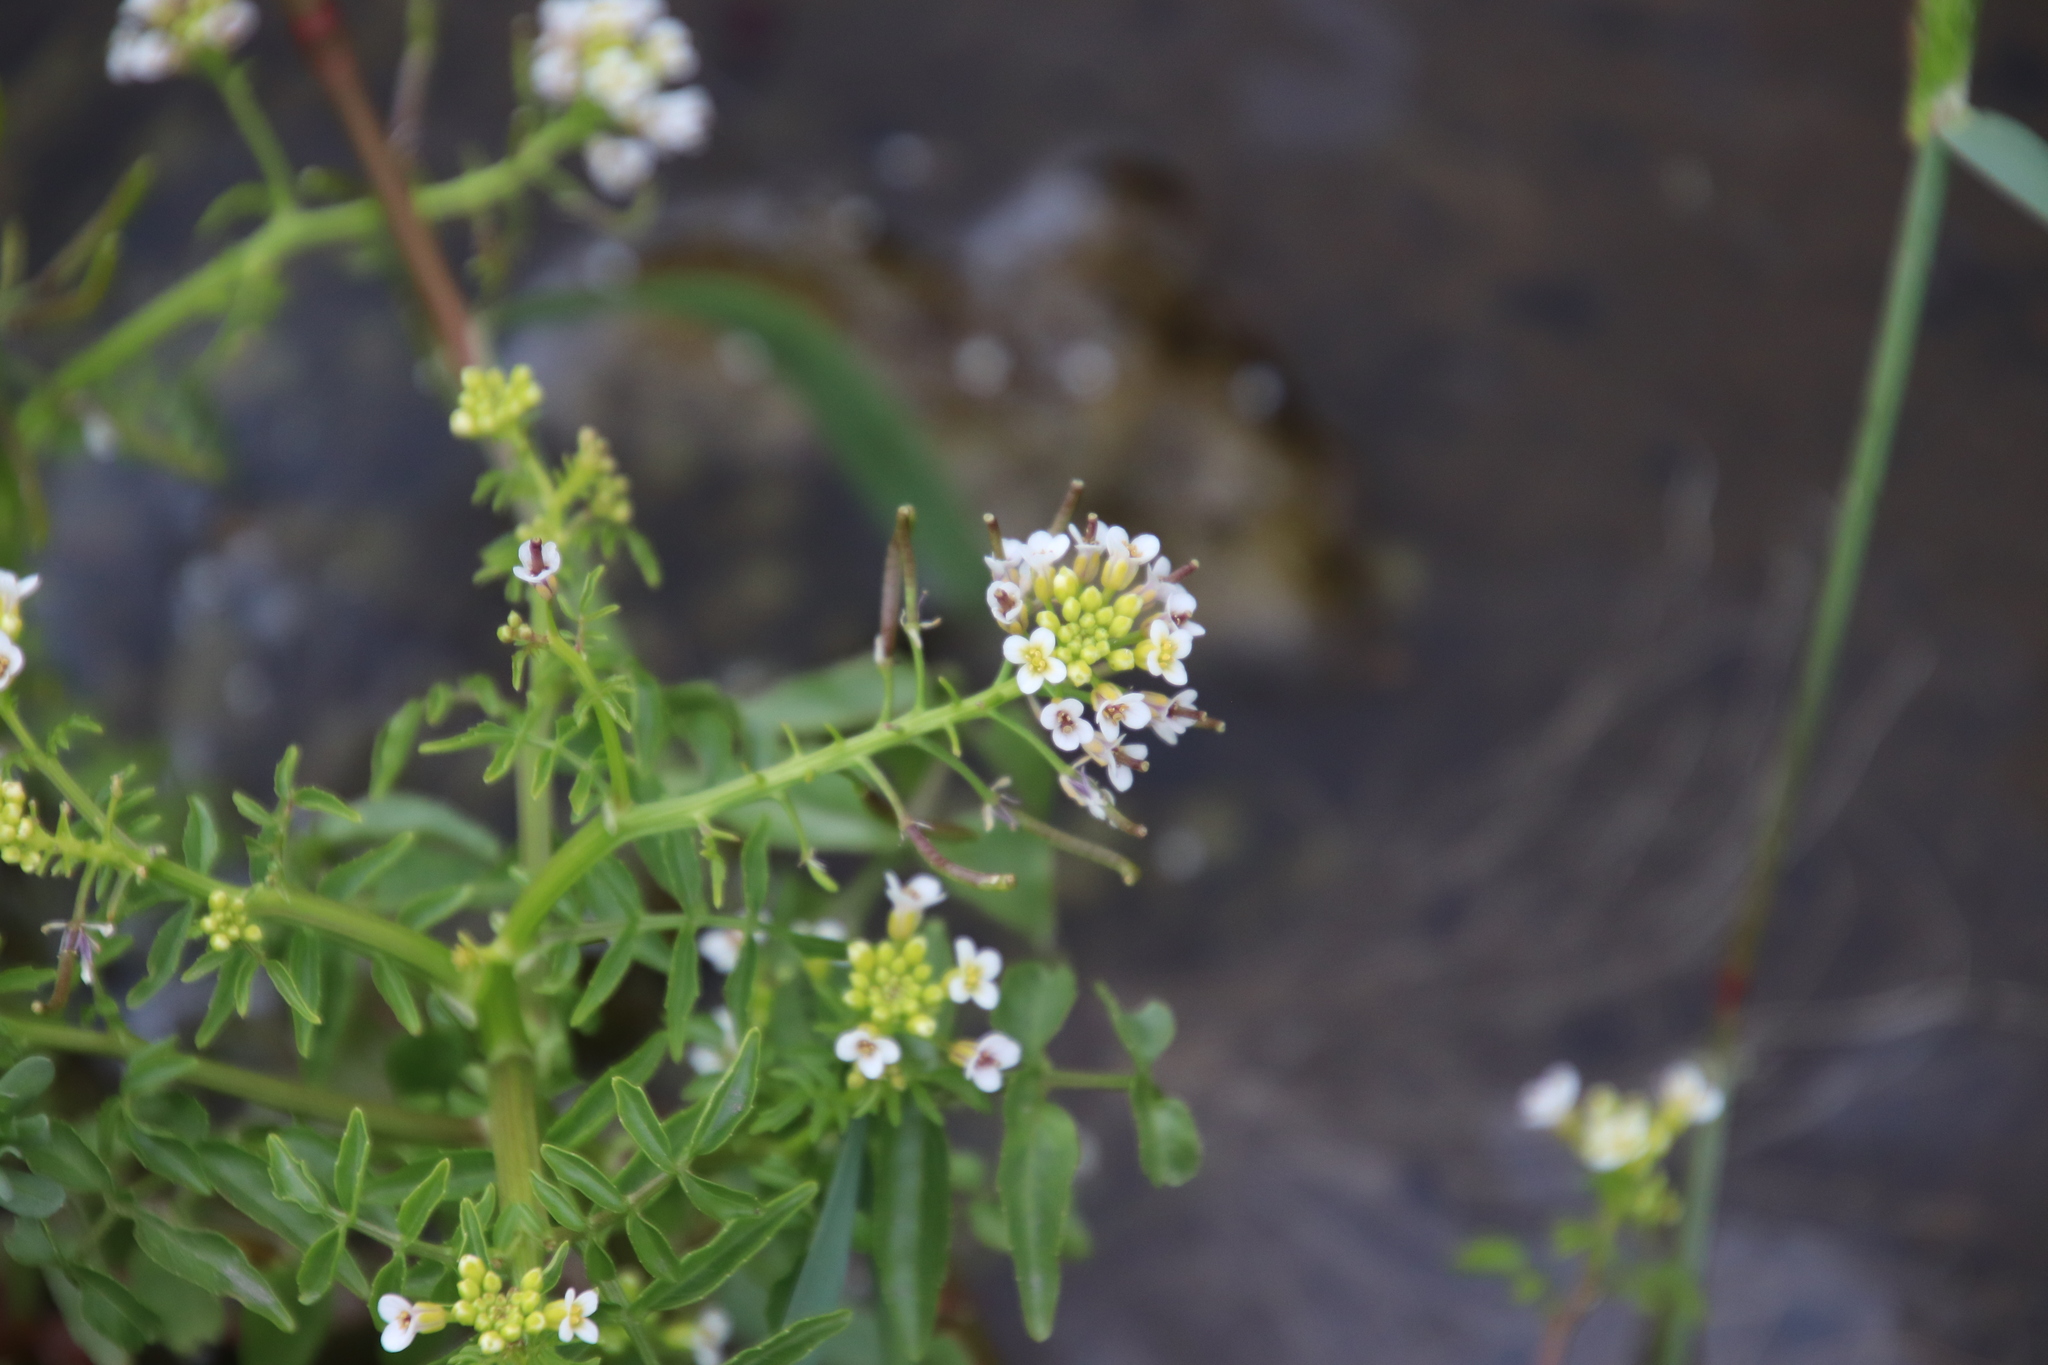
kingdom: Plantae
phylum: Tracheophyta
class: Magnoliopsida
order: Brassicales
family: Brassicaceae
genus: Nasturtium
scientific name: Nasturtium officinale
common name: Watercress
